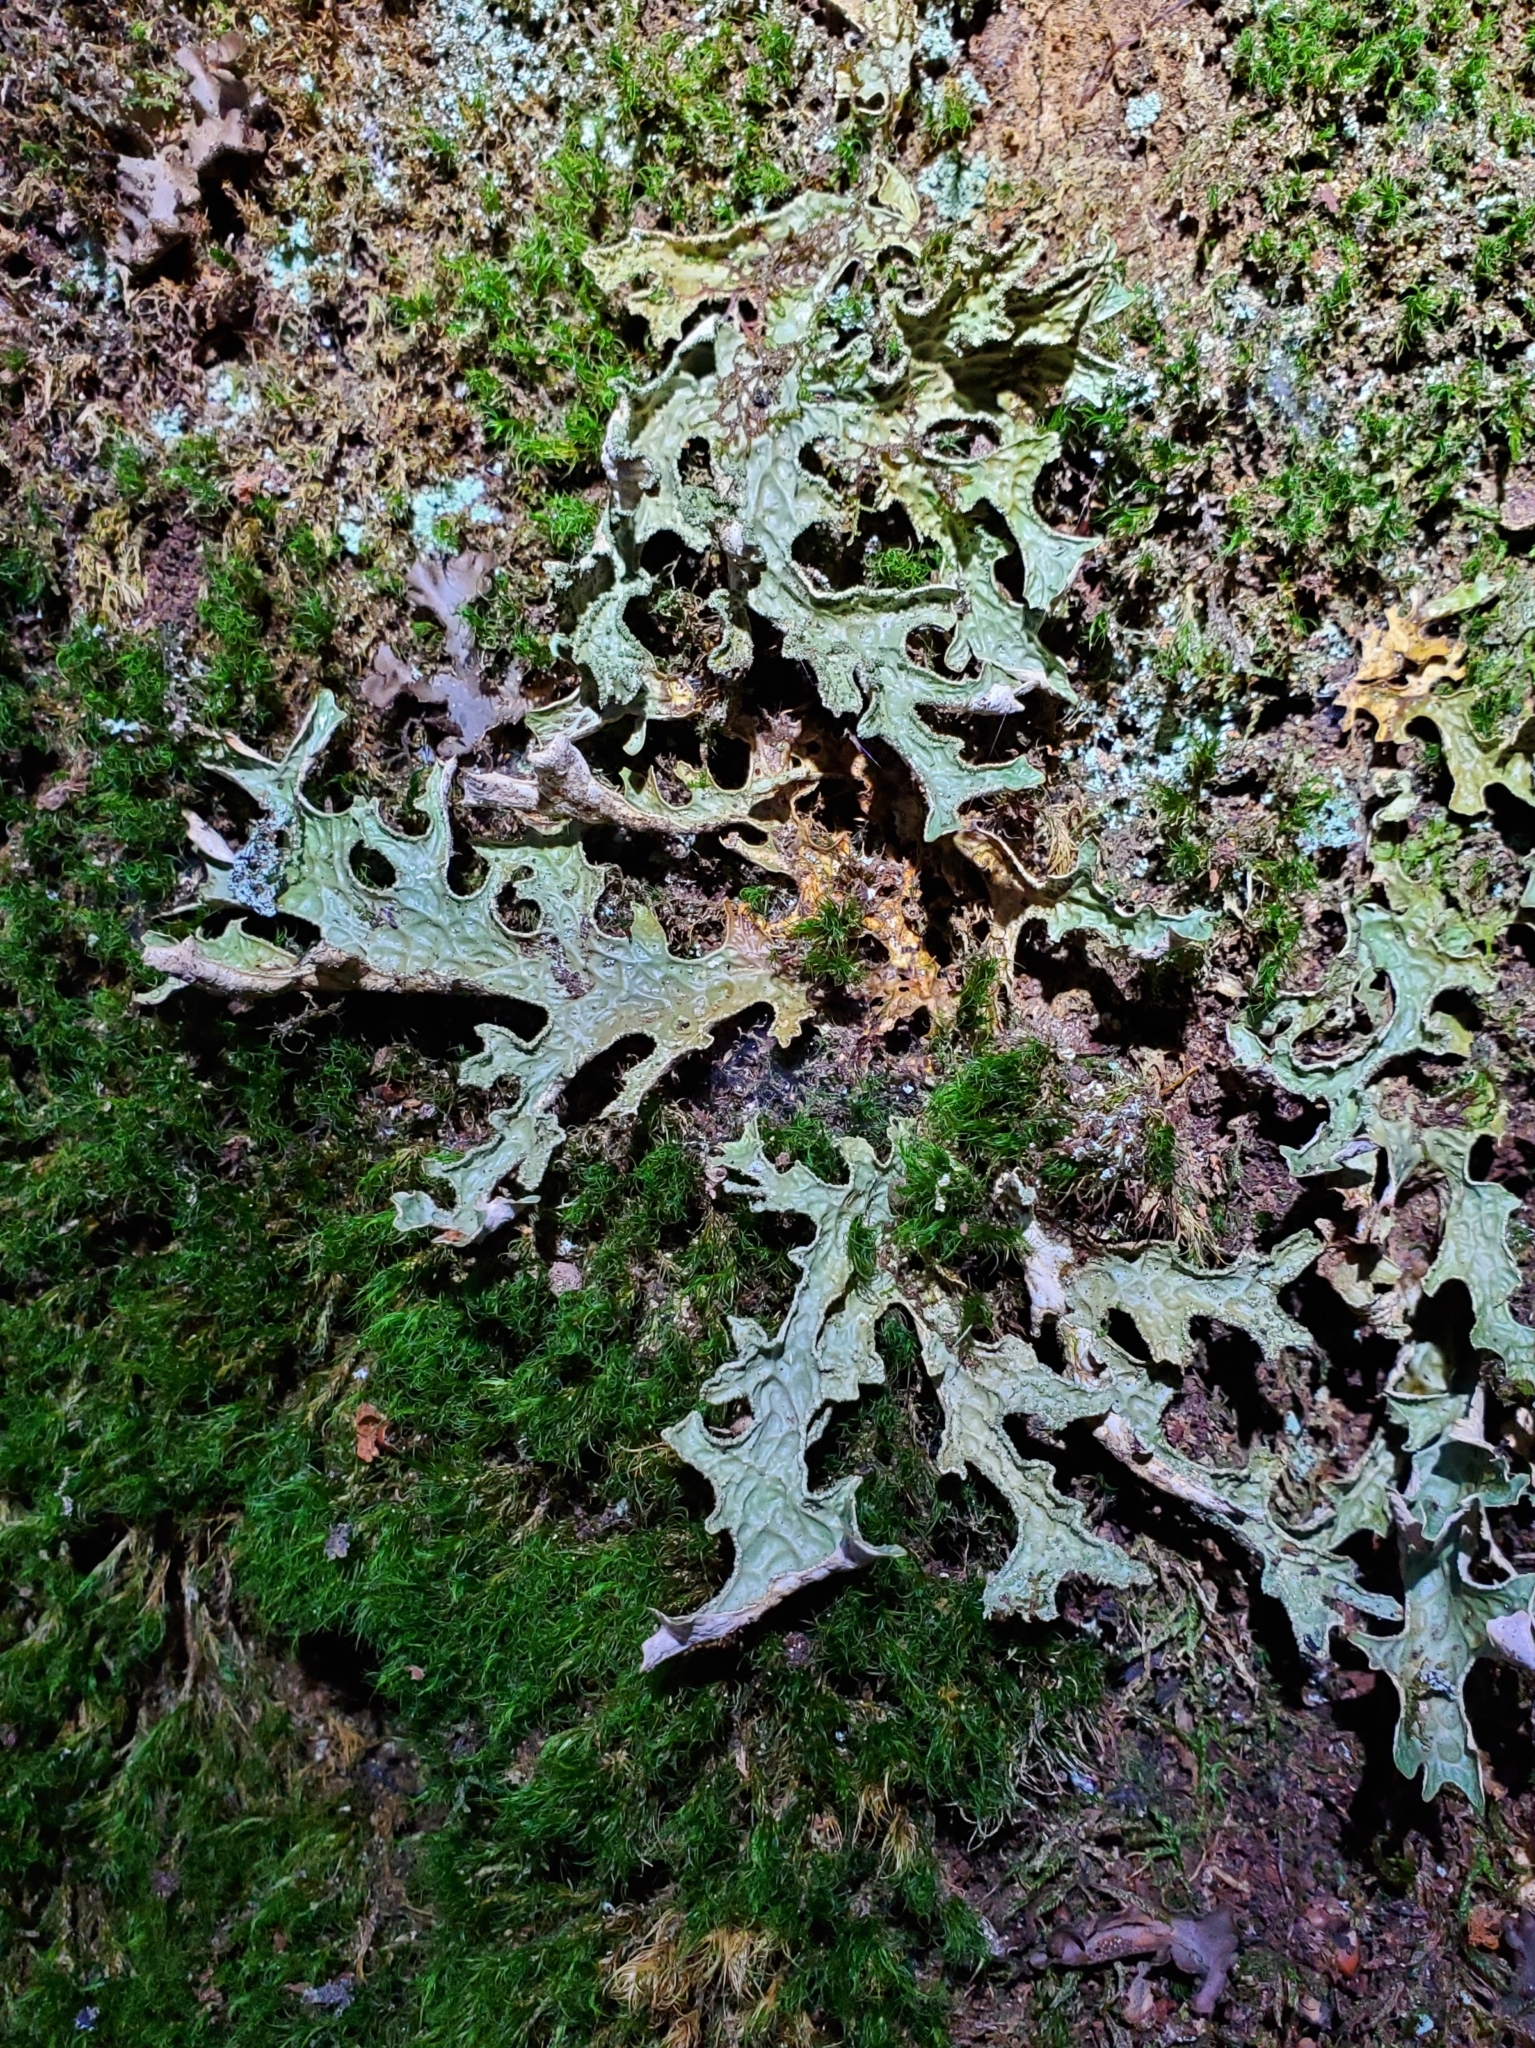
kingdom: Fungi
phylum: Ascomycota
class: Lecanoromycetes
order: Peltigerales
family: Lobariaceae
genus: Lobaria
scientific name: Lobaria pulmonaria
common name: Lungwort
